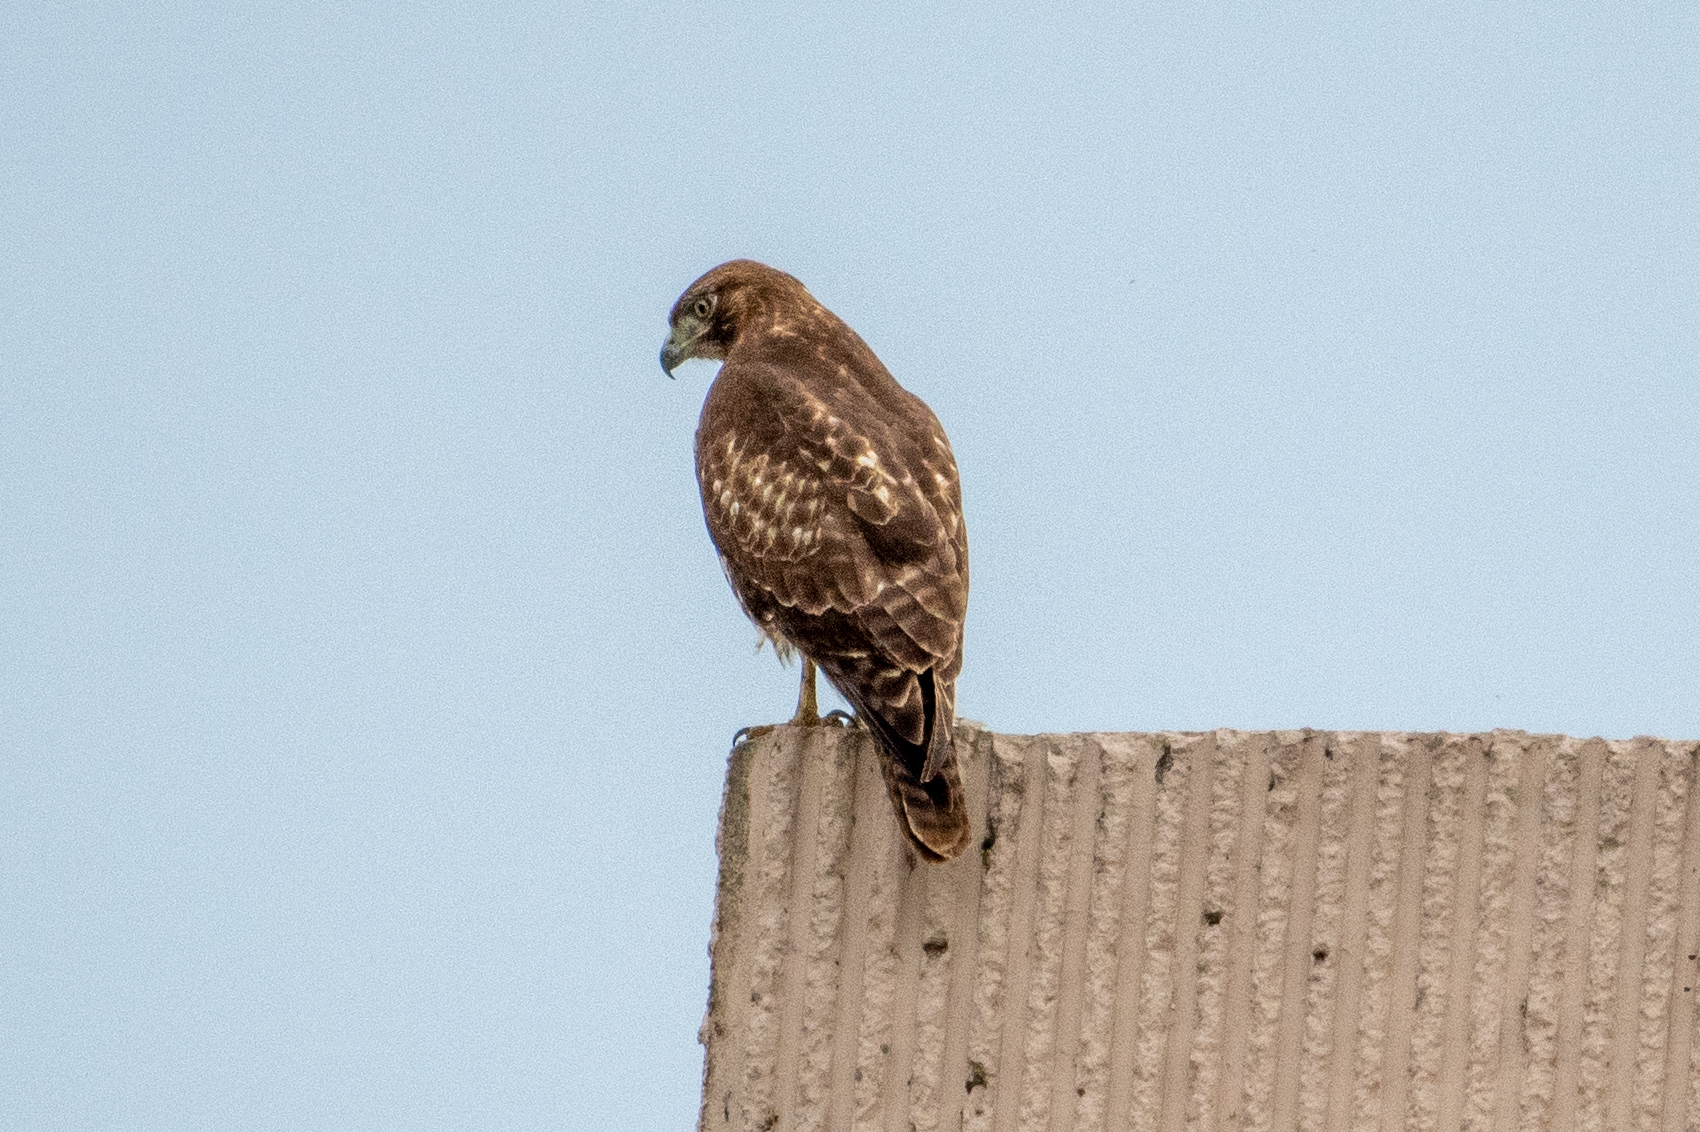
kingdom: Animalia
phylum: Chordata
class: Aves
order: Accipitriformes
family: Accipitridae
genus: Buteo
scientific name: Buteo jamaicensis
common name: Red-tailed hawk
